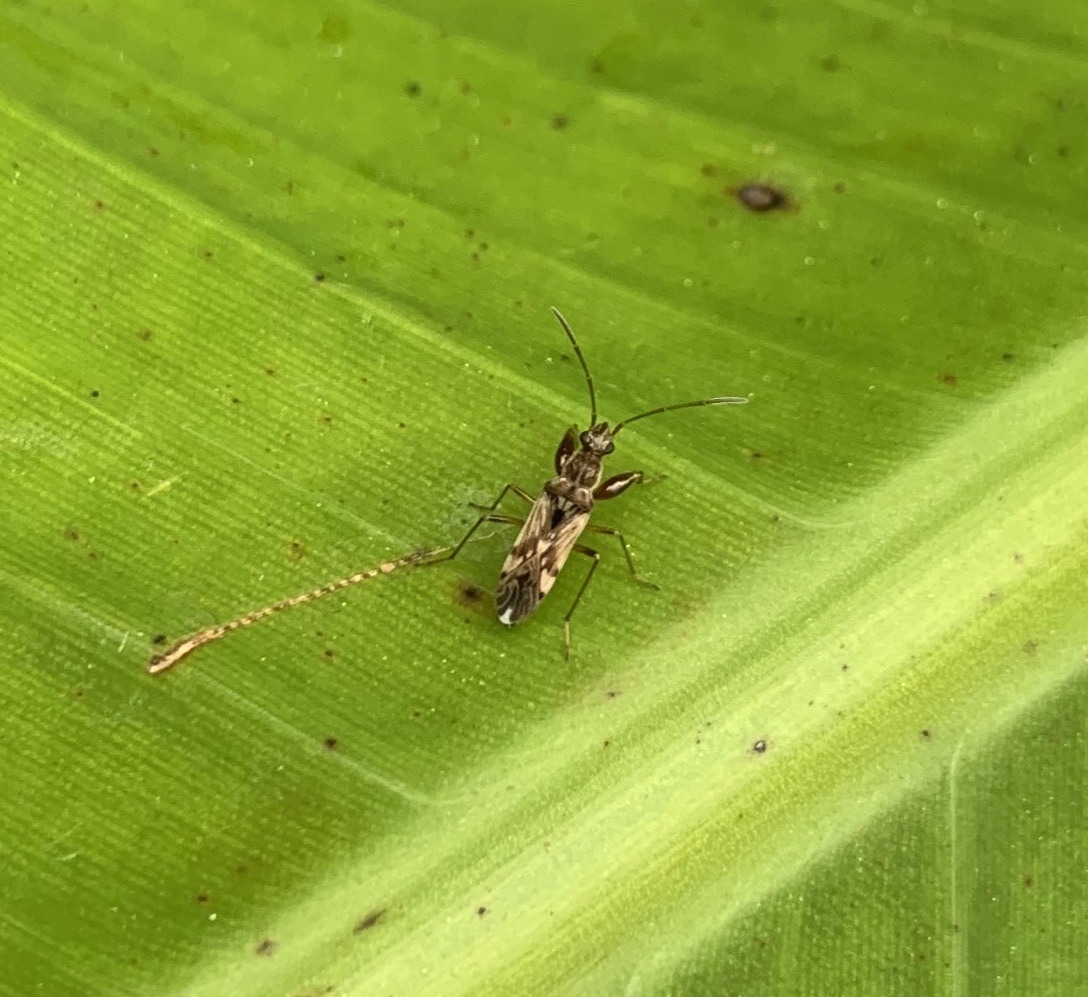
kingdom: Animalia
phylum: Arthropoda
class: Insecta
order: Hemiptera
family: Rhyparochromidae
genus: Neopamera
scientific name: Neopamera bilobata
